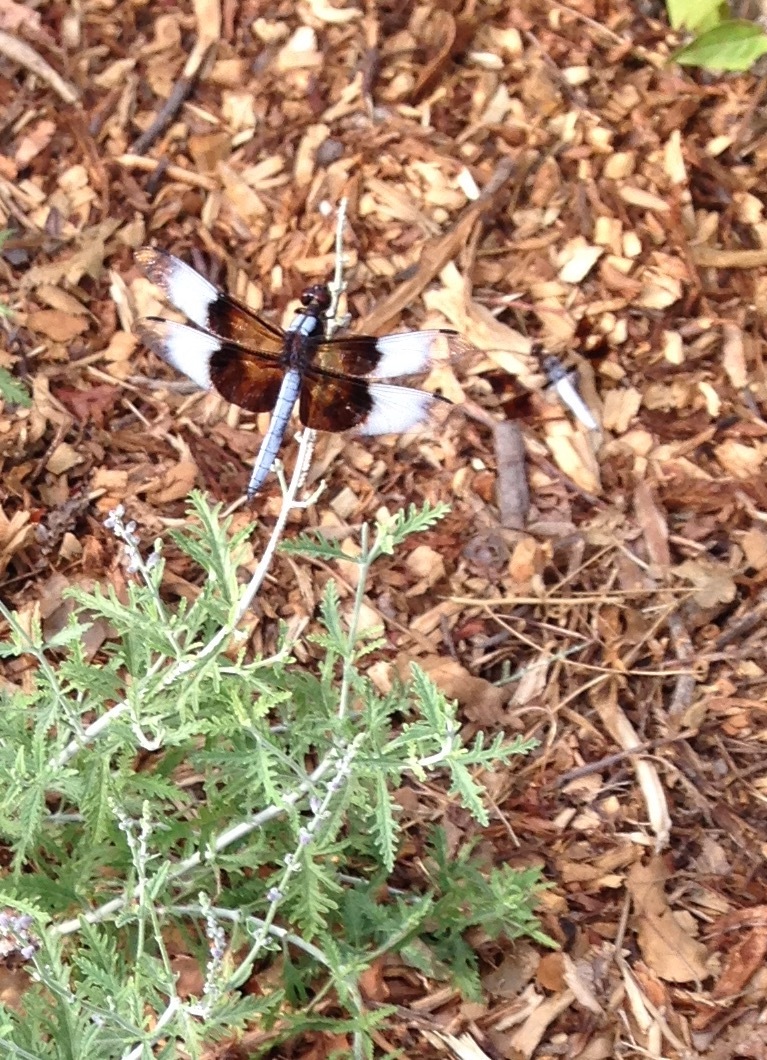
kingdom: Animalia
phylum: Arthropoda
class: Insecta
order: Odonata
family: Libellulidae
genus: Libellula
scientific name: Libellula luctuosa
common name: Widow skimmer
